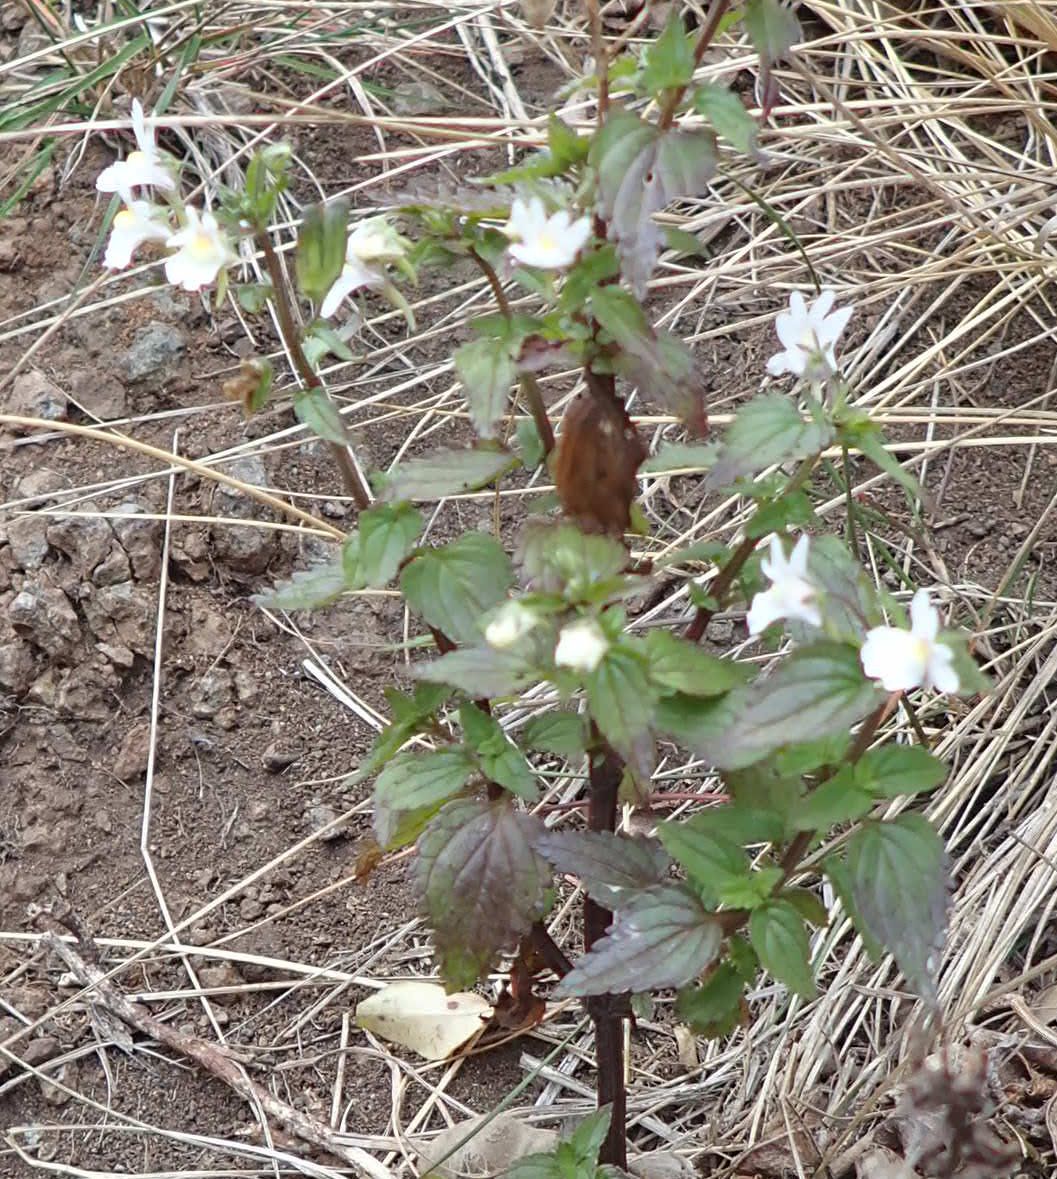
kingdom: Plantae
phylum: Tracheophyta
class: Magnoliopsida
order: Lamiales
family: Scrophulariaceae
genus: Nemesia
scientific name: Nemesia floribunda
